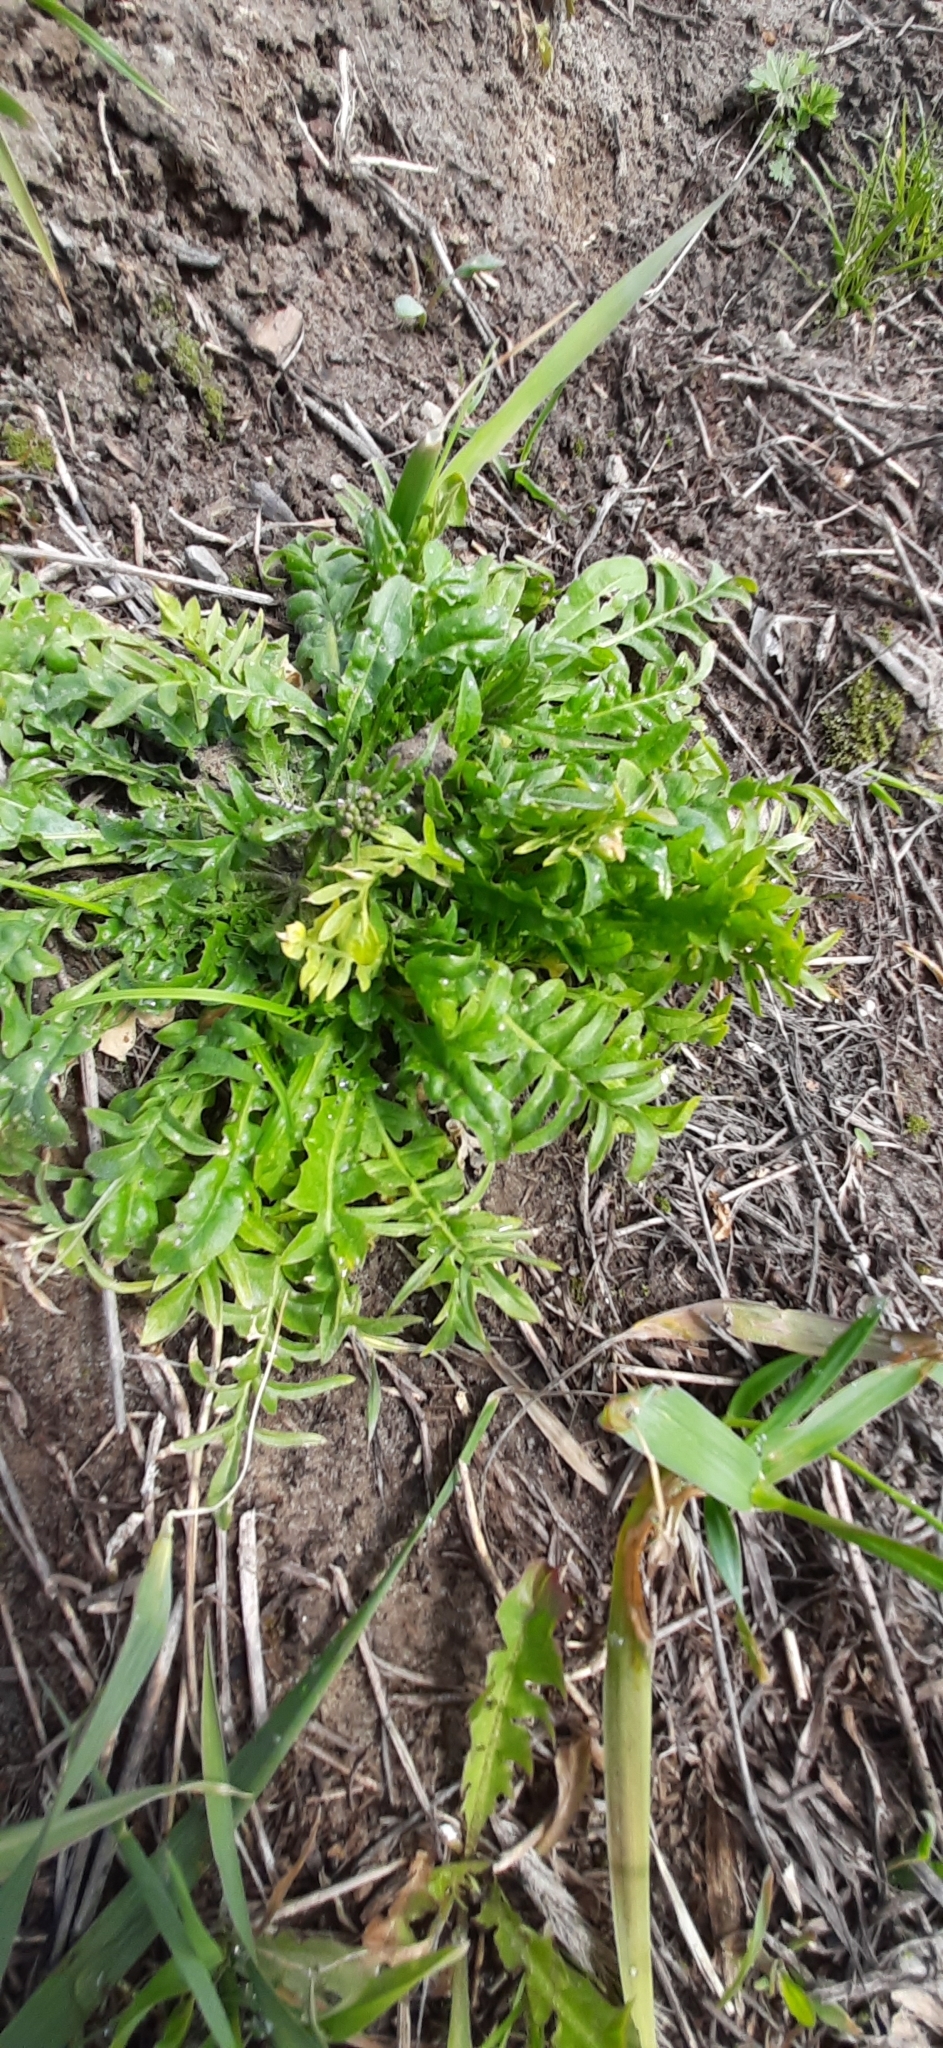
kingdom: Plantae
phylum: Tracheophyta
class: Magnoliopsida
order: Brassicales
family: Brassicaceae
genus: Capsella
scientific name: Capsella bursa-pastoris
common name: Shepherd's purse
